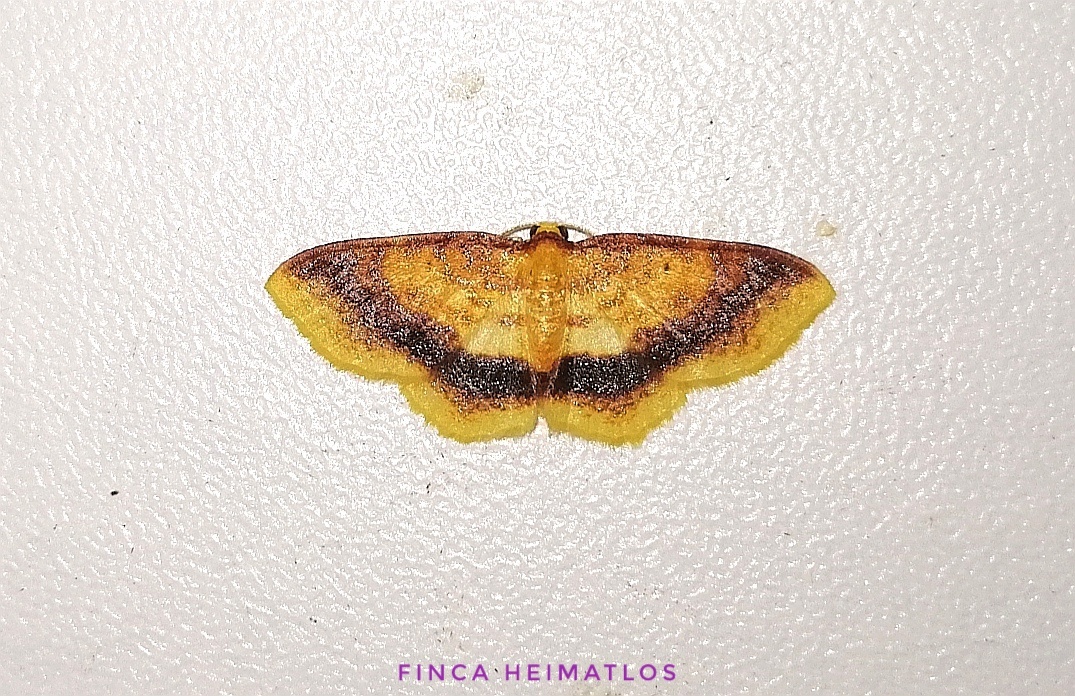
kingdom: Animalia
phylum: Arthropoda
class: Insecta
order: Lepidoptera
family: Geometridae
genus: Eois
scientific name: Eois fasciata
